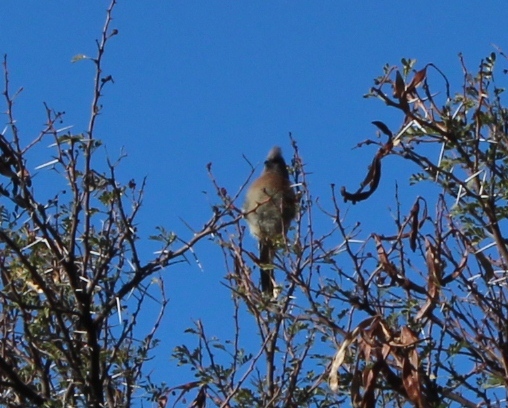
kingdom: Animalia
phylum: Chordata
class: Aves
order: Coliiformes
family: Coliidae
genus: Colius
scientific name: Colius colius
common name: White-backed mousebird
